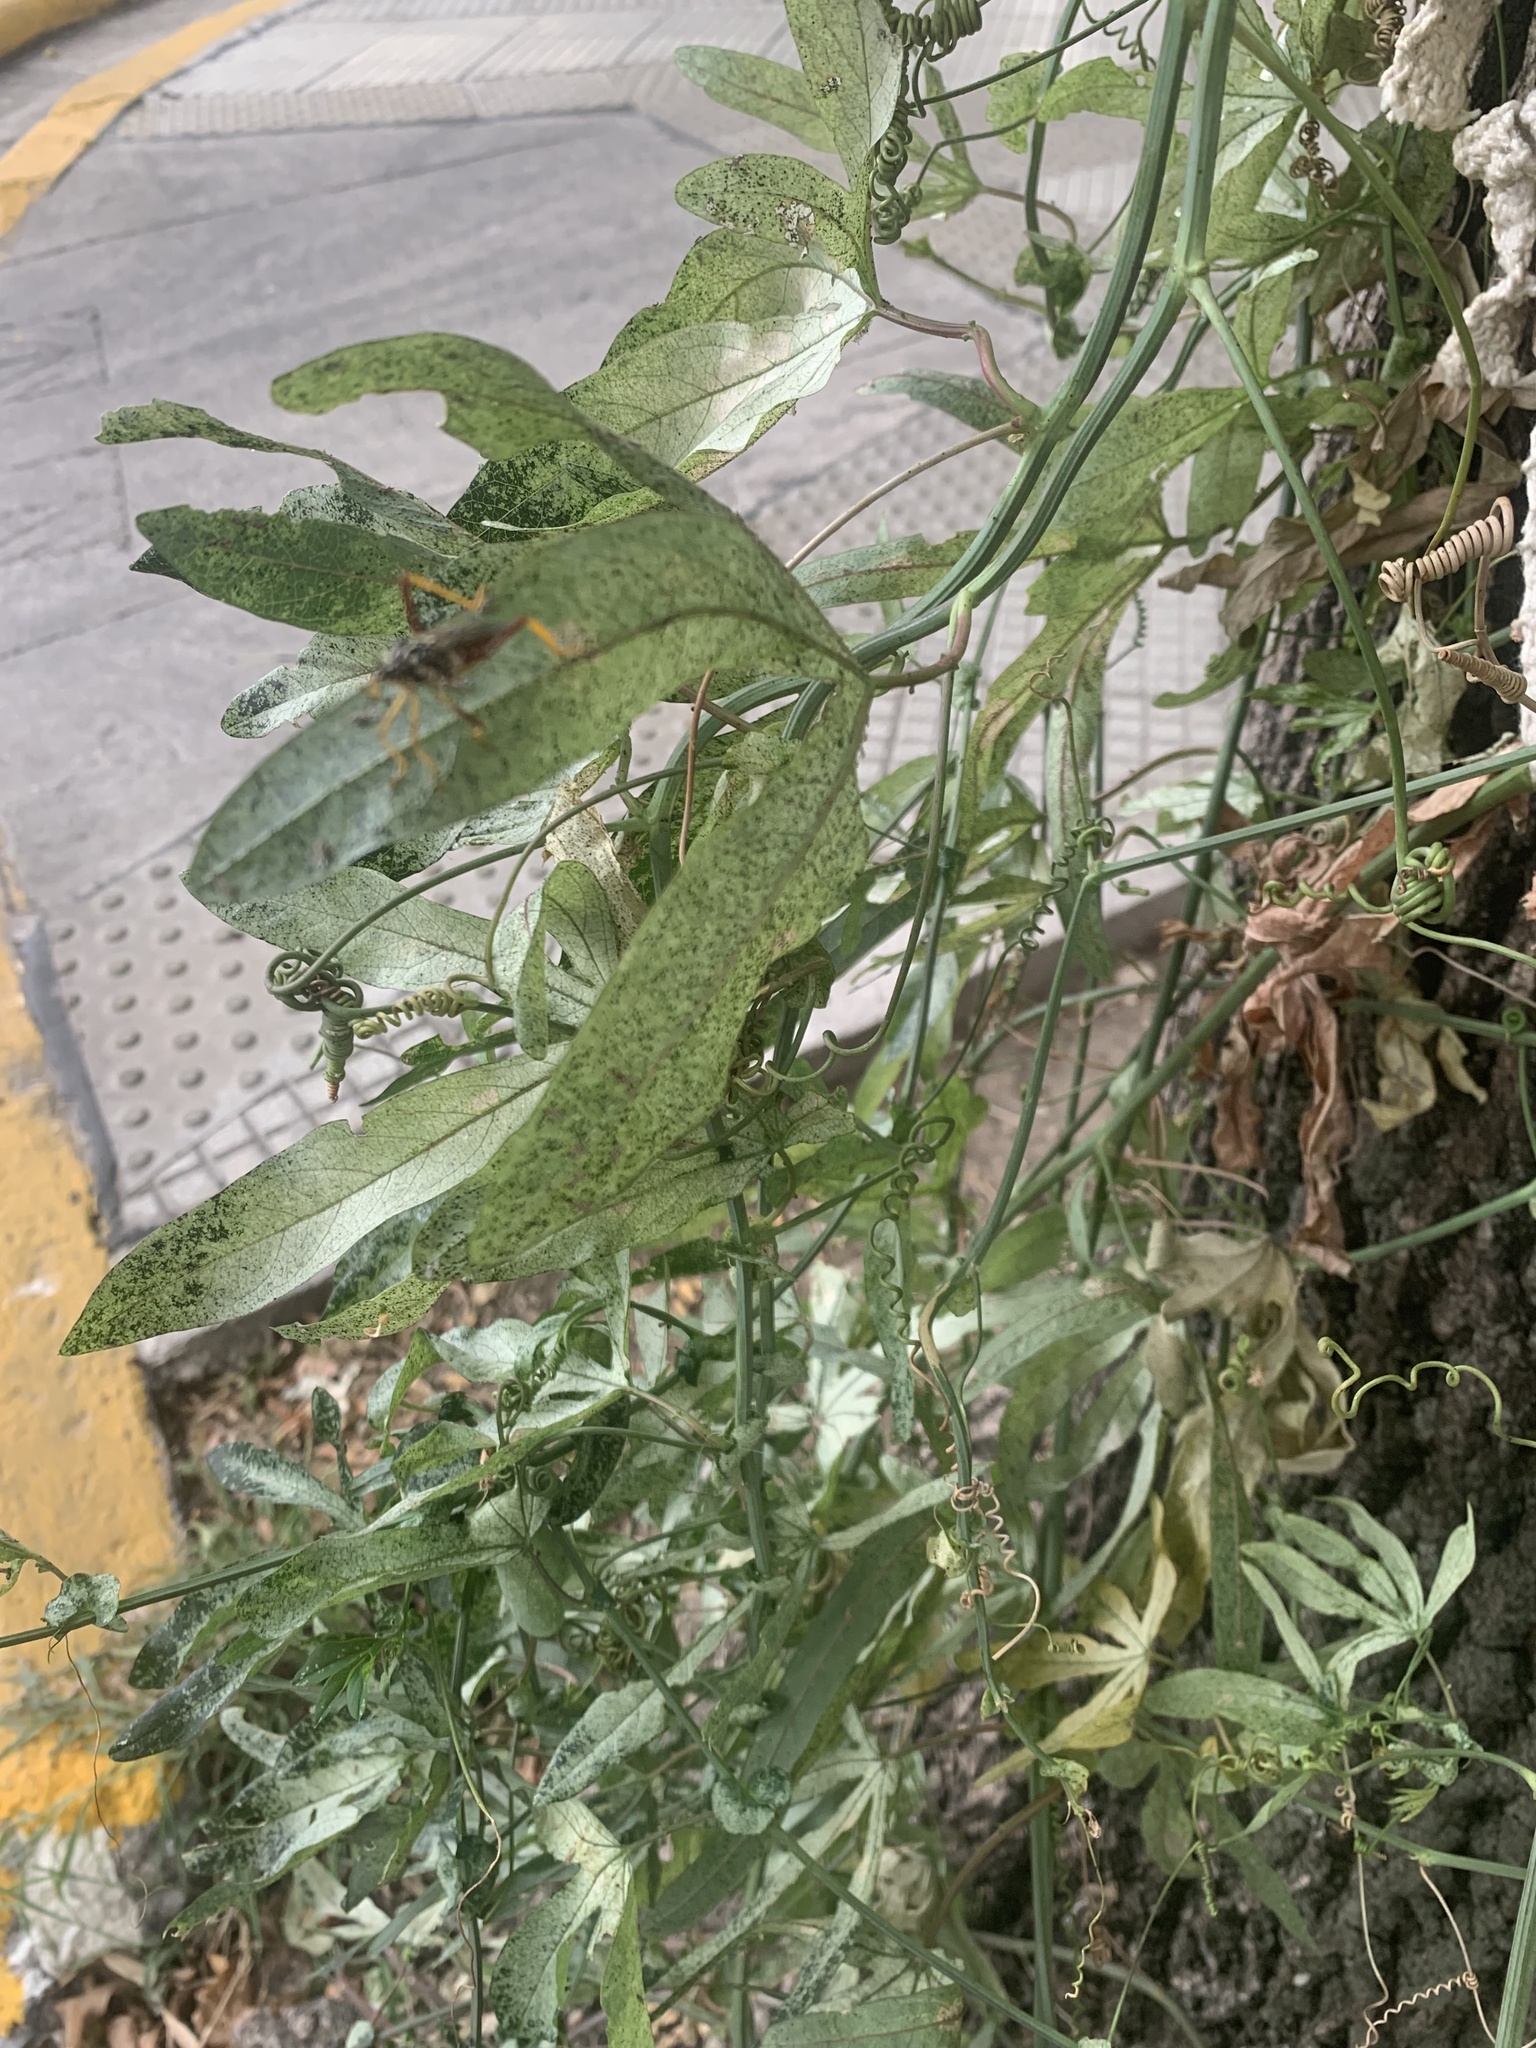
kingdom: Plantae
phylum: Tracheophyta
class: Magnoliopsida
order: Malpighiales
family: Passifloraceae
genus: Passiflora
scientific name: Passiflora caerulea
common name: Blue passionflower
